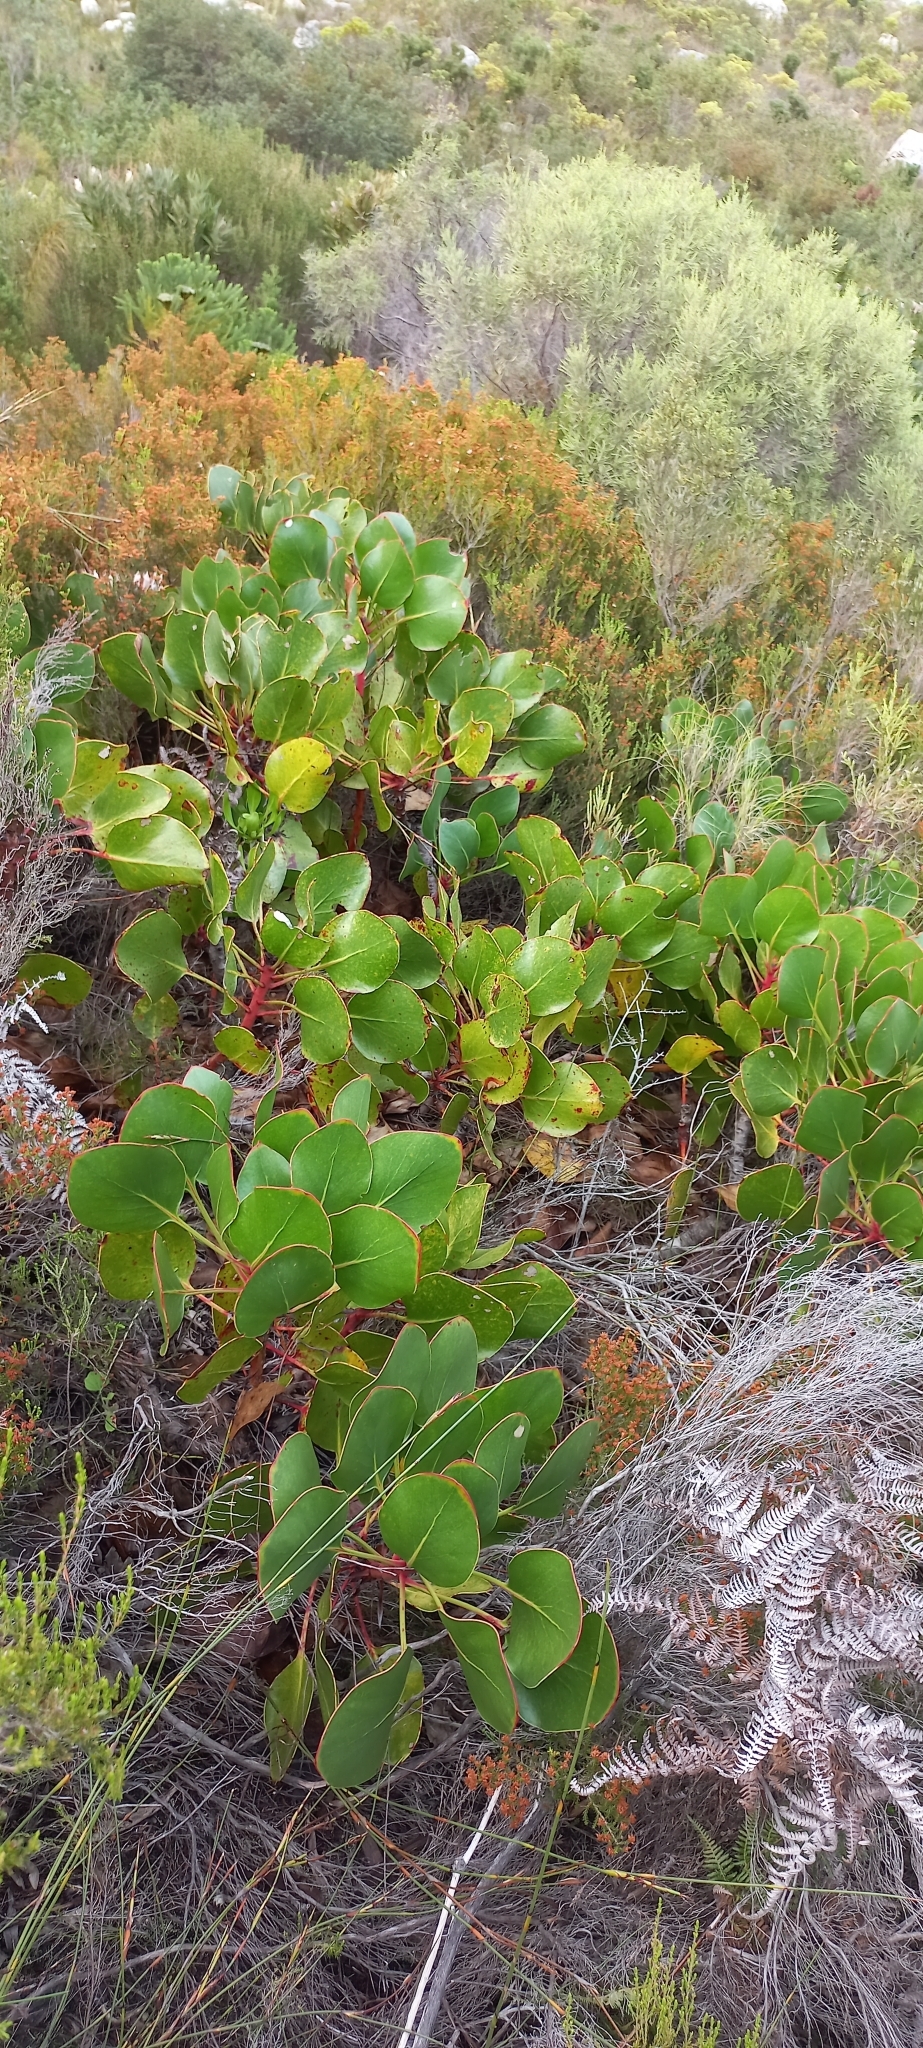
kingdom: Plantae
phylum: Tracheophyta
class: Magnoliopsida
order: Proteales
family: Proteaceae
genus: Protea
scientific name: Protea cynaroides
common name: King protea
